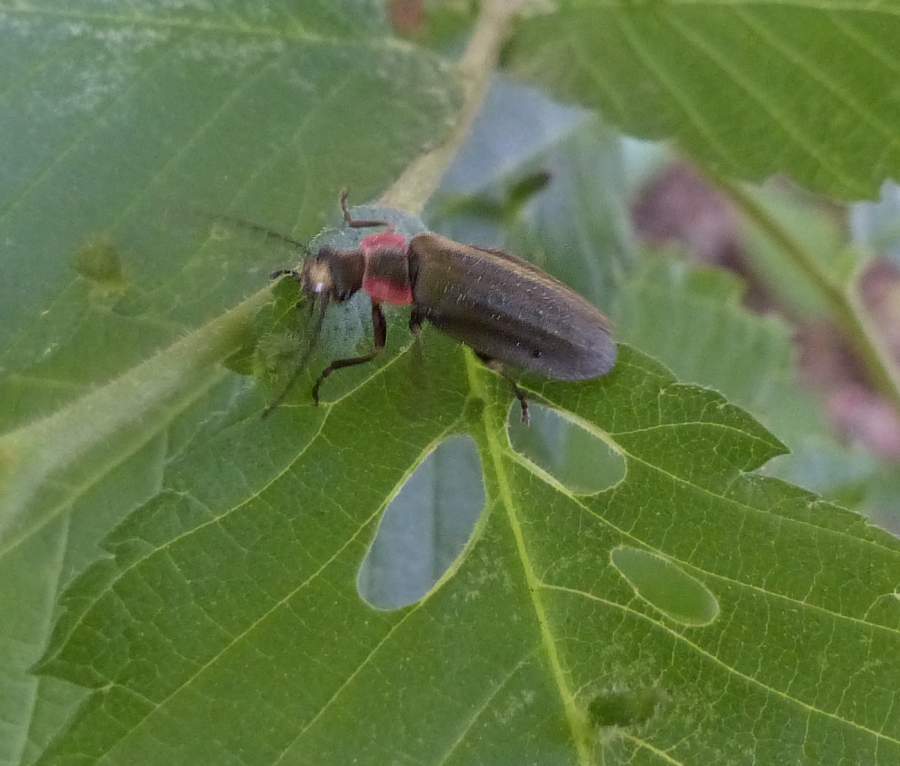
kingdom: Animalia
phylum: Arthropoda
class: Insecta
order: Coleoptera
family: Cantharidae
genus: Podabrus
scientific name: Podabrus tricostatus
